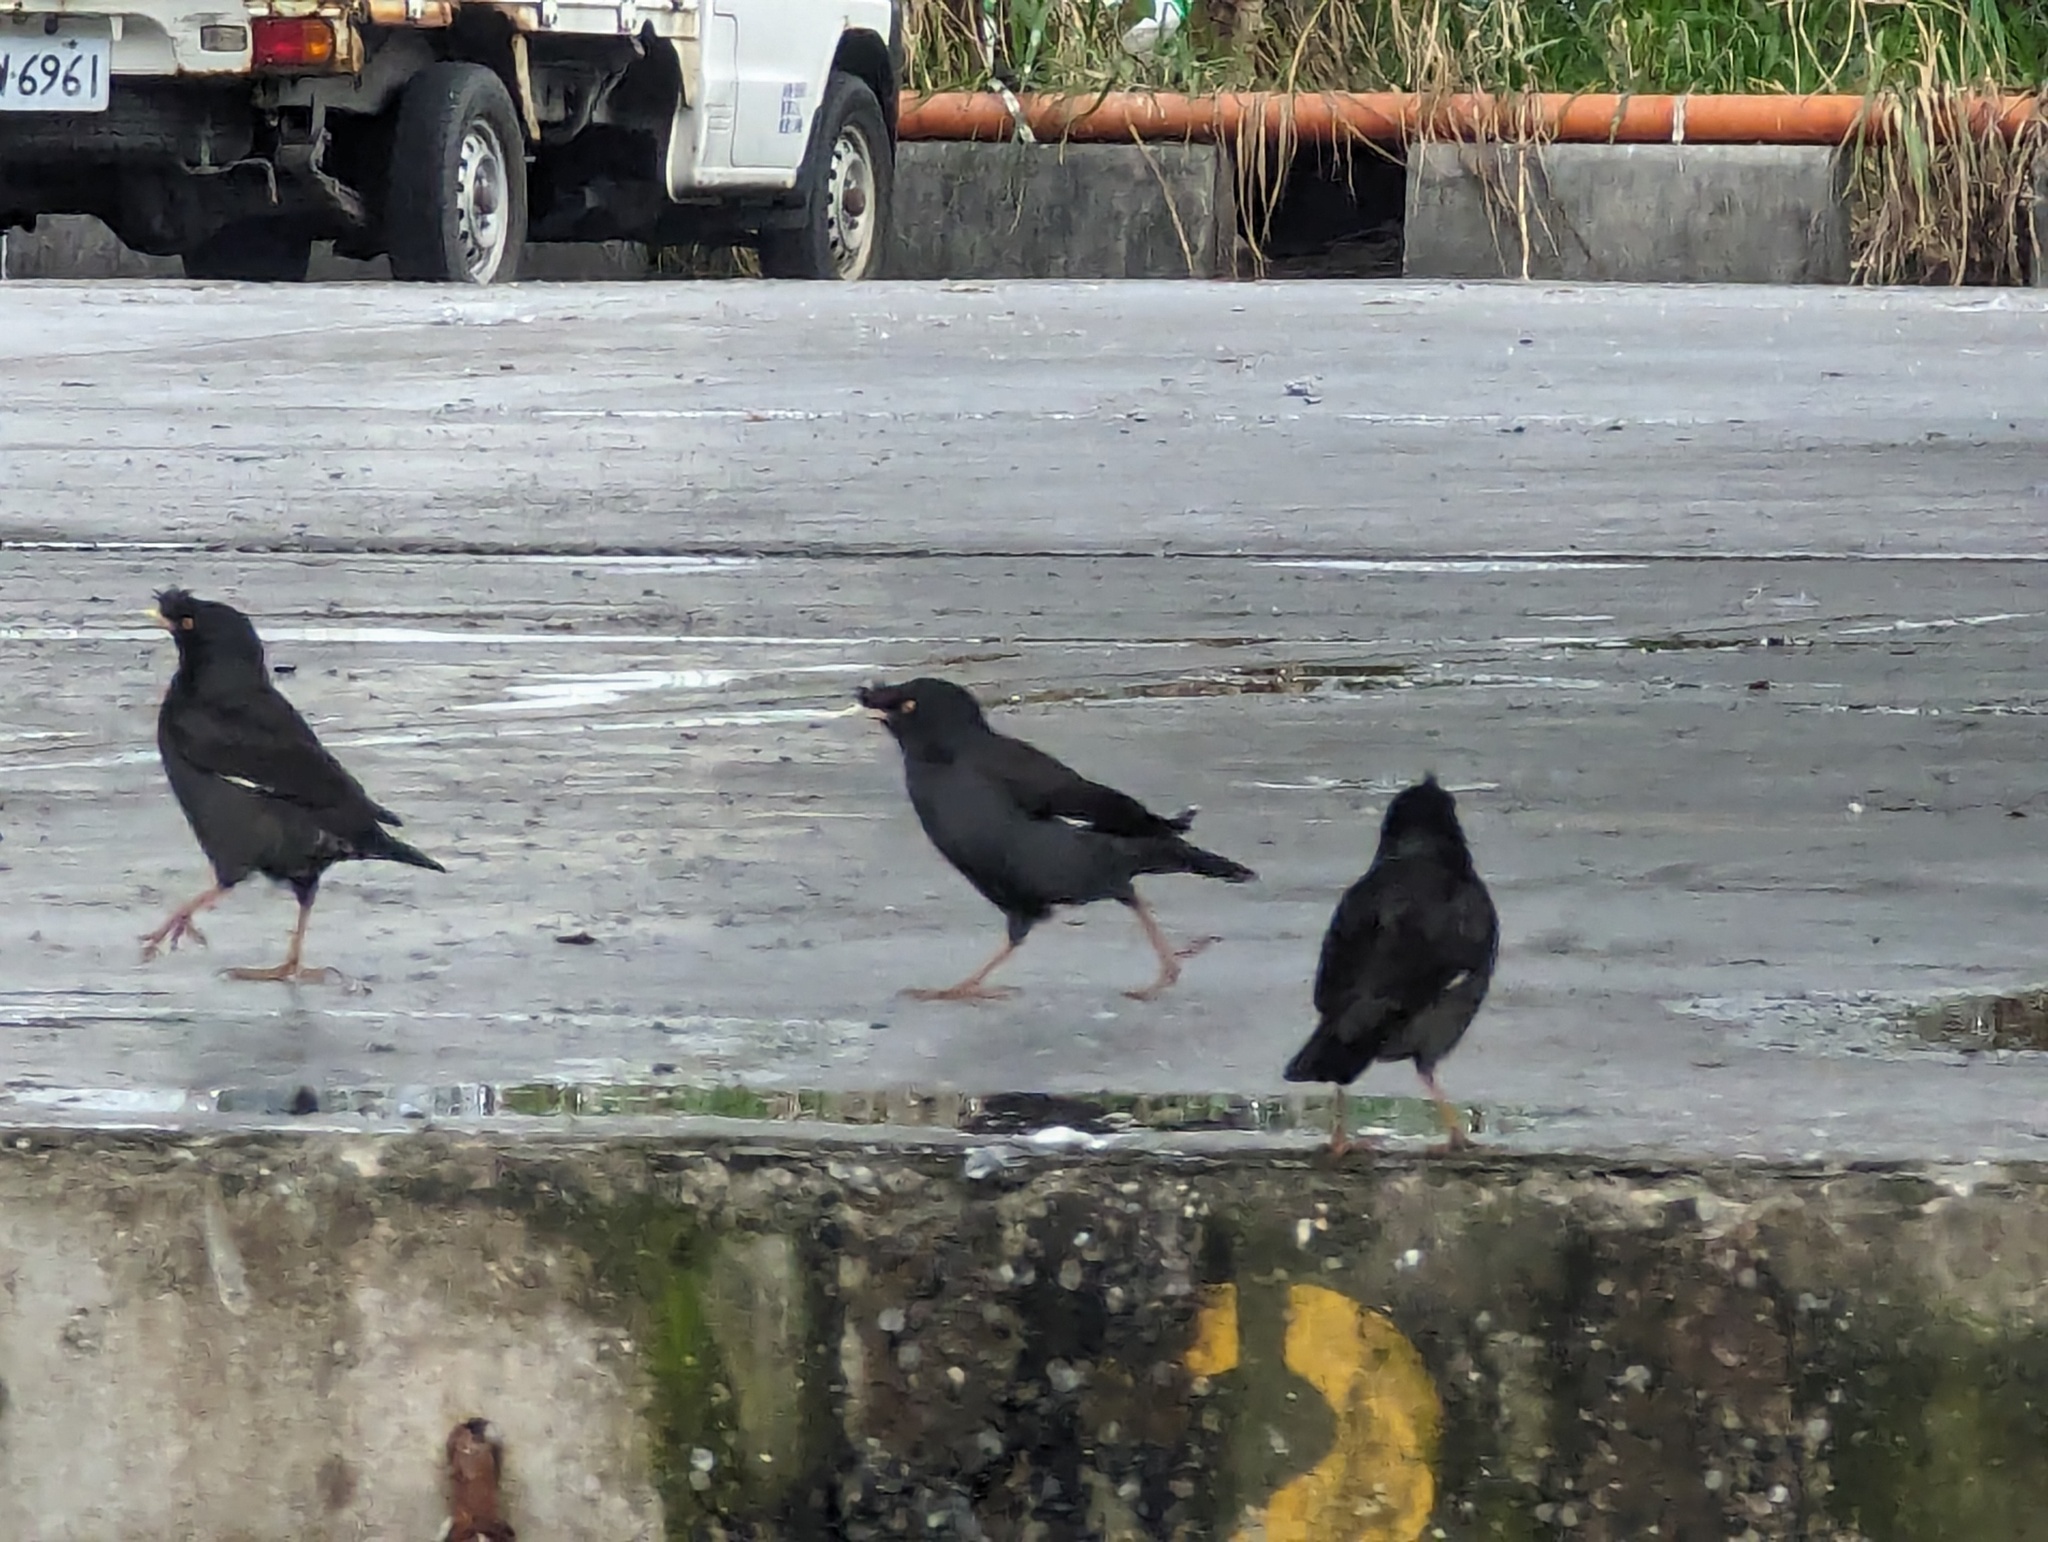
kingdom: Animalia
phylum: Chordata
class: Aves
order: Passeriformes
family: Sturnidae
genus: Acridotheres
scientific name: Acridotheres cristatellus
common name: Crested myna
